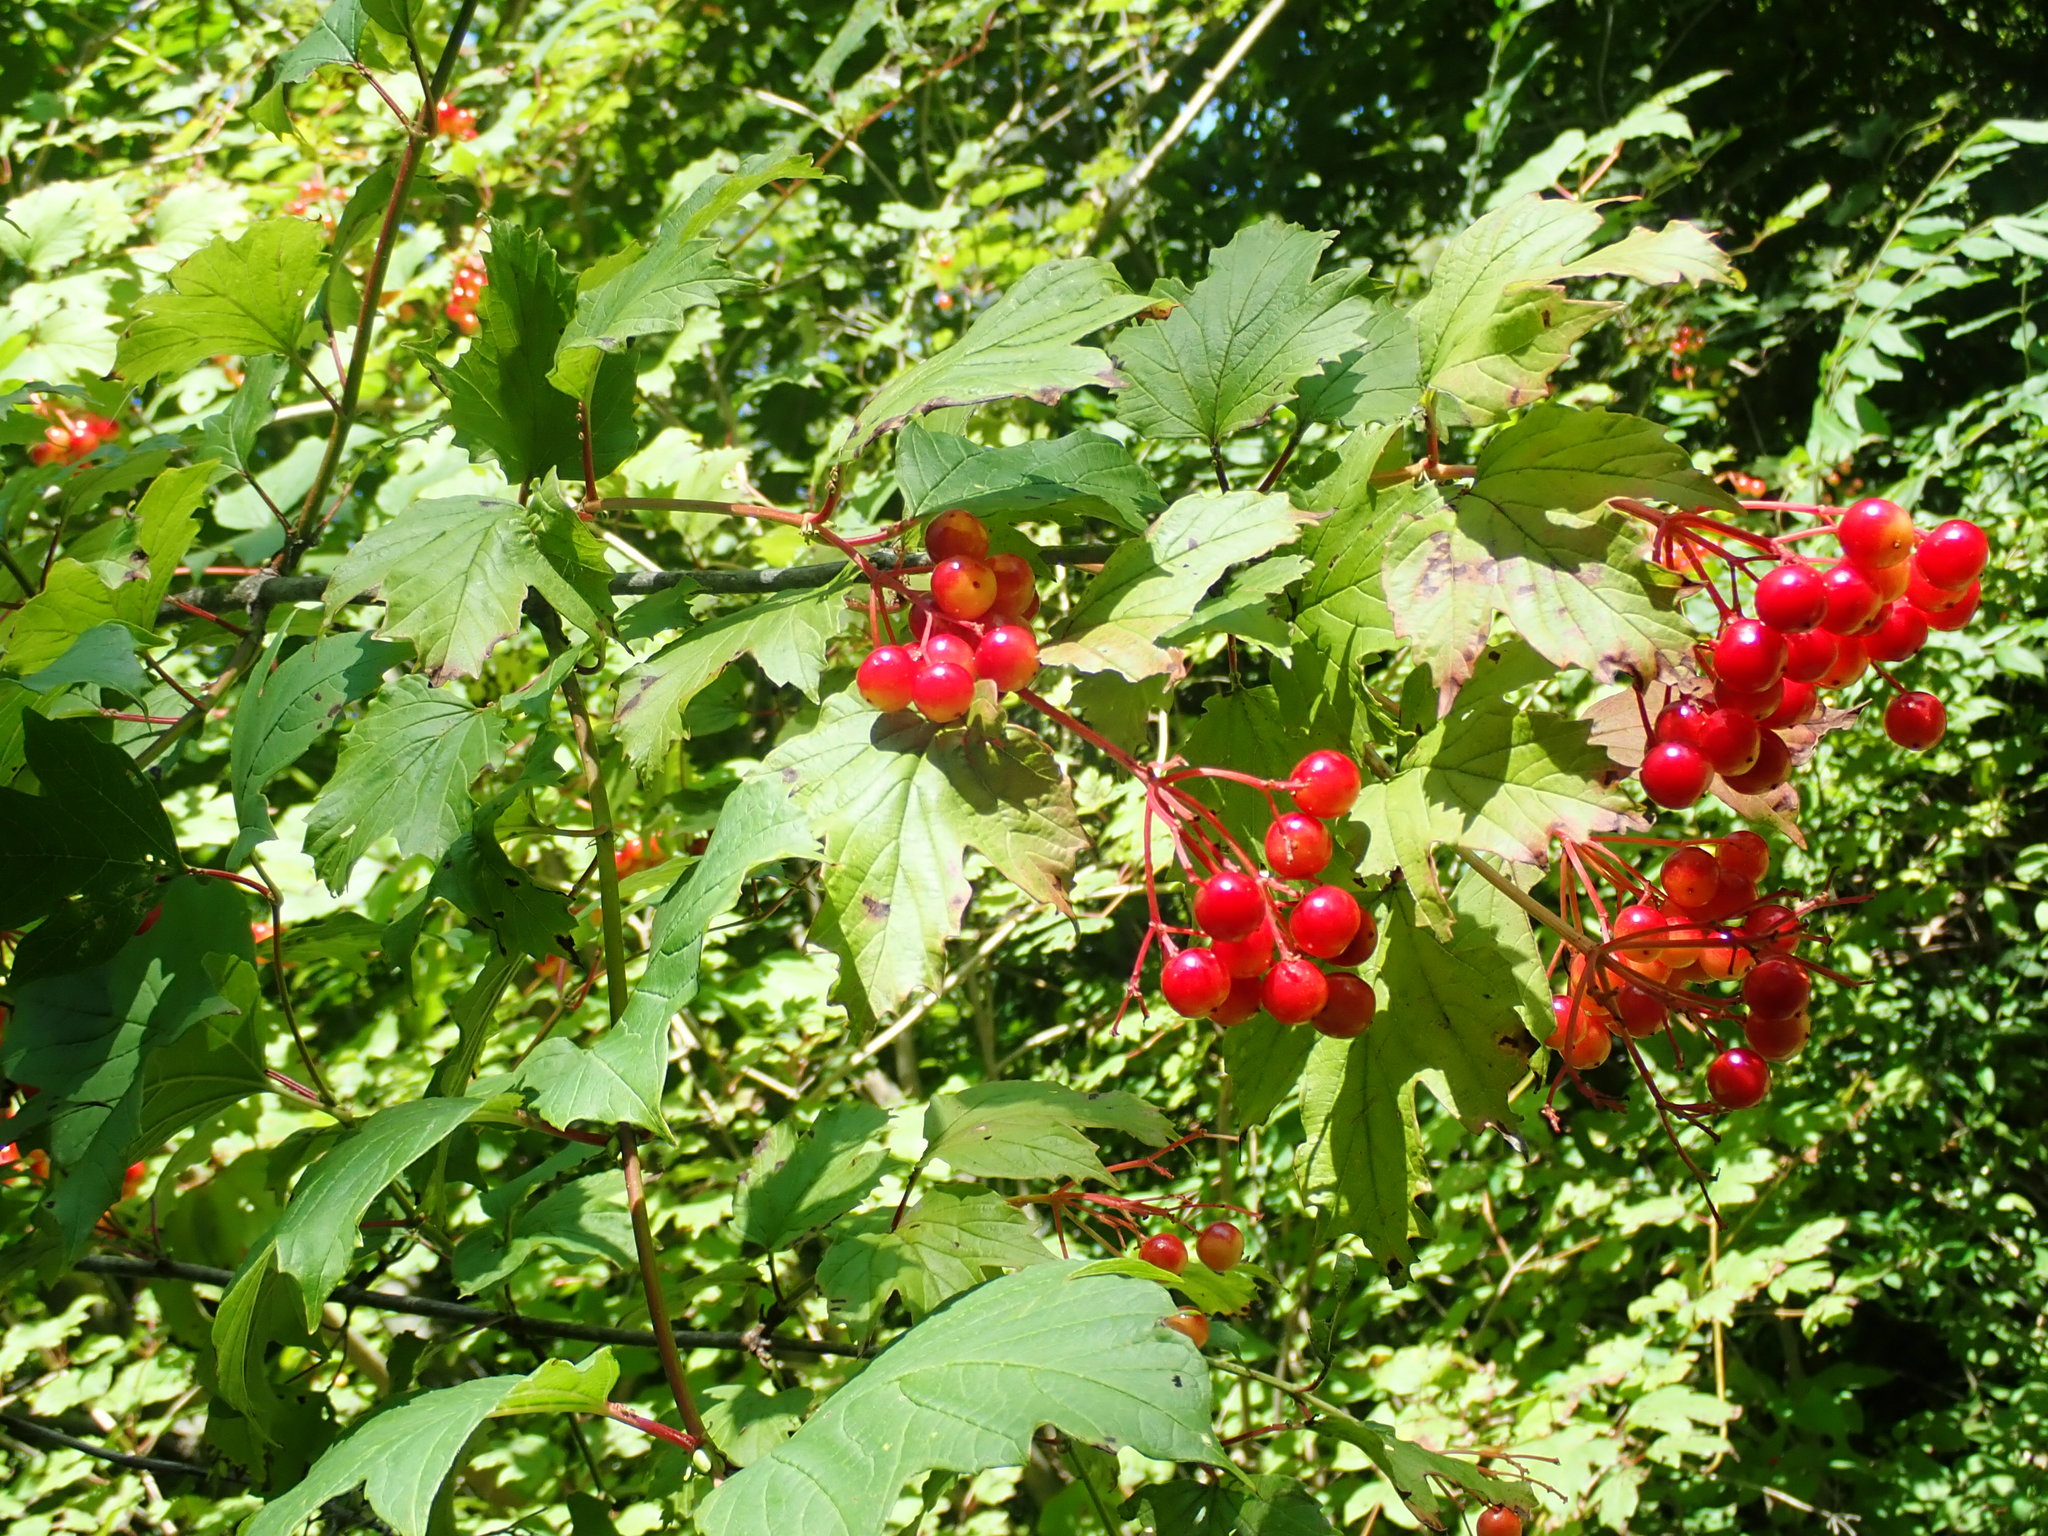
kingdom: Plantae
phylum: Tracheophyta
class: Magnoliopsida
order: Dipsacales
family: Viburnaceae
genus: Viburnum
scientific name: Viburnum opulus
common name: Guelder-rose
